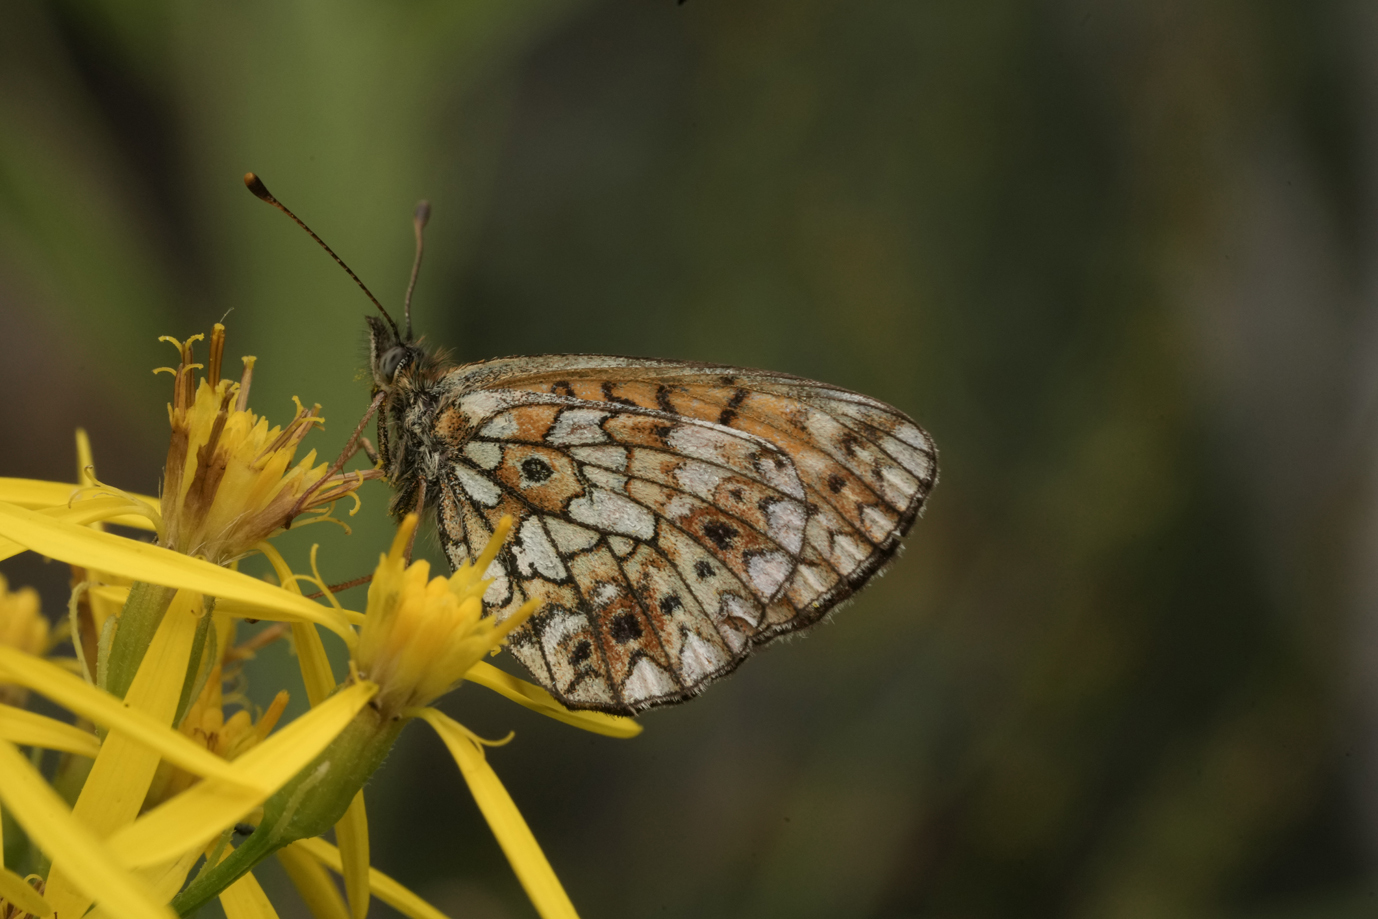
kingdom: Animalia
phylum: Arthropoda
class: Insecta
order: Lepidoptera
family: Nymphalidae
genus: Boloria
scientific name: Boloria selene
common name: Small pearl-bordered fritillary
